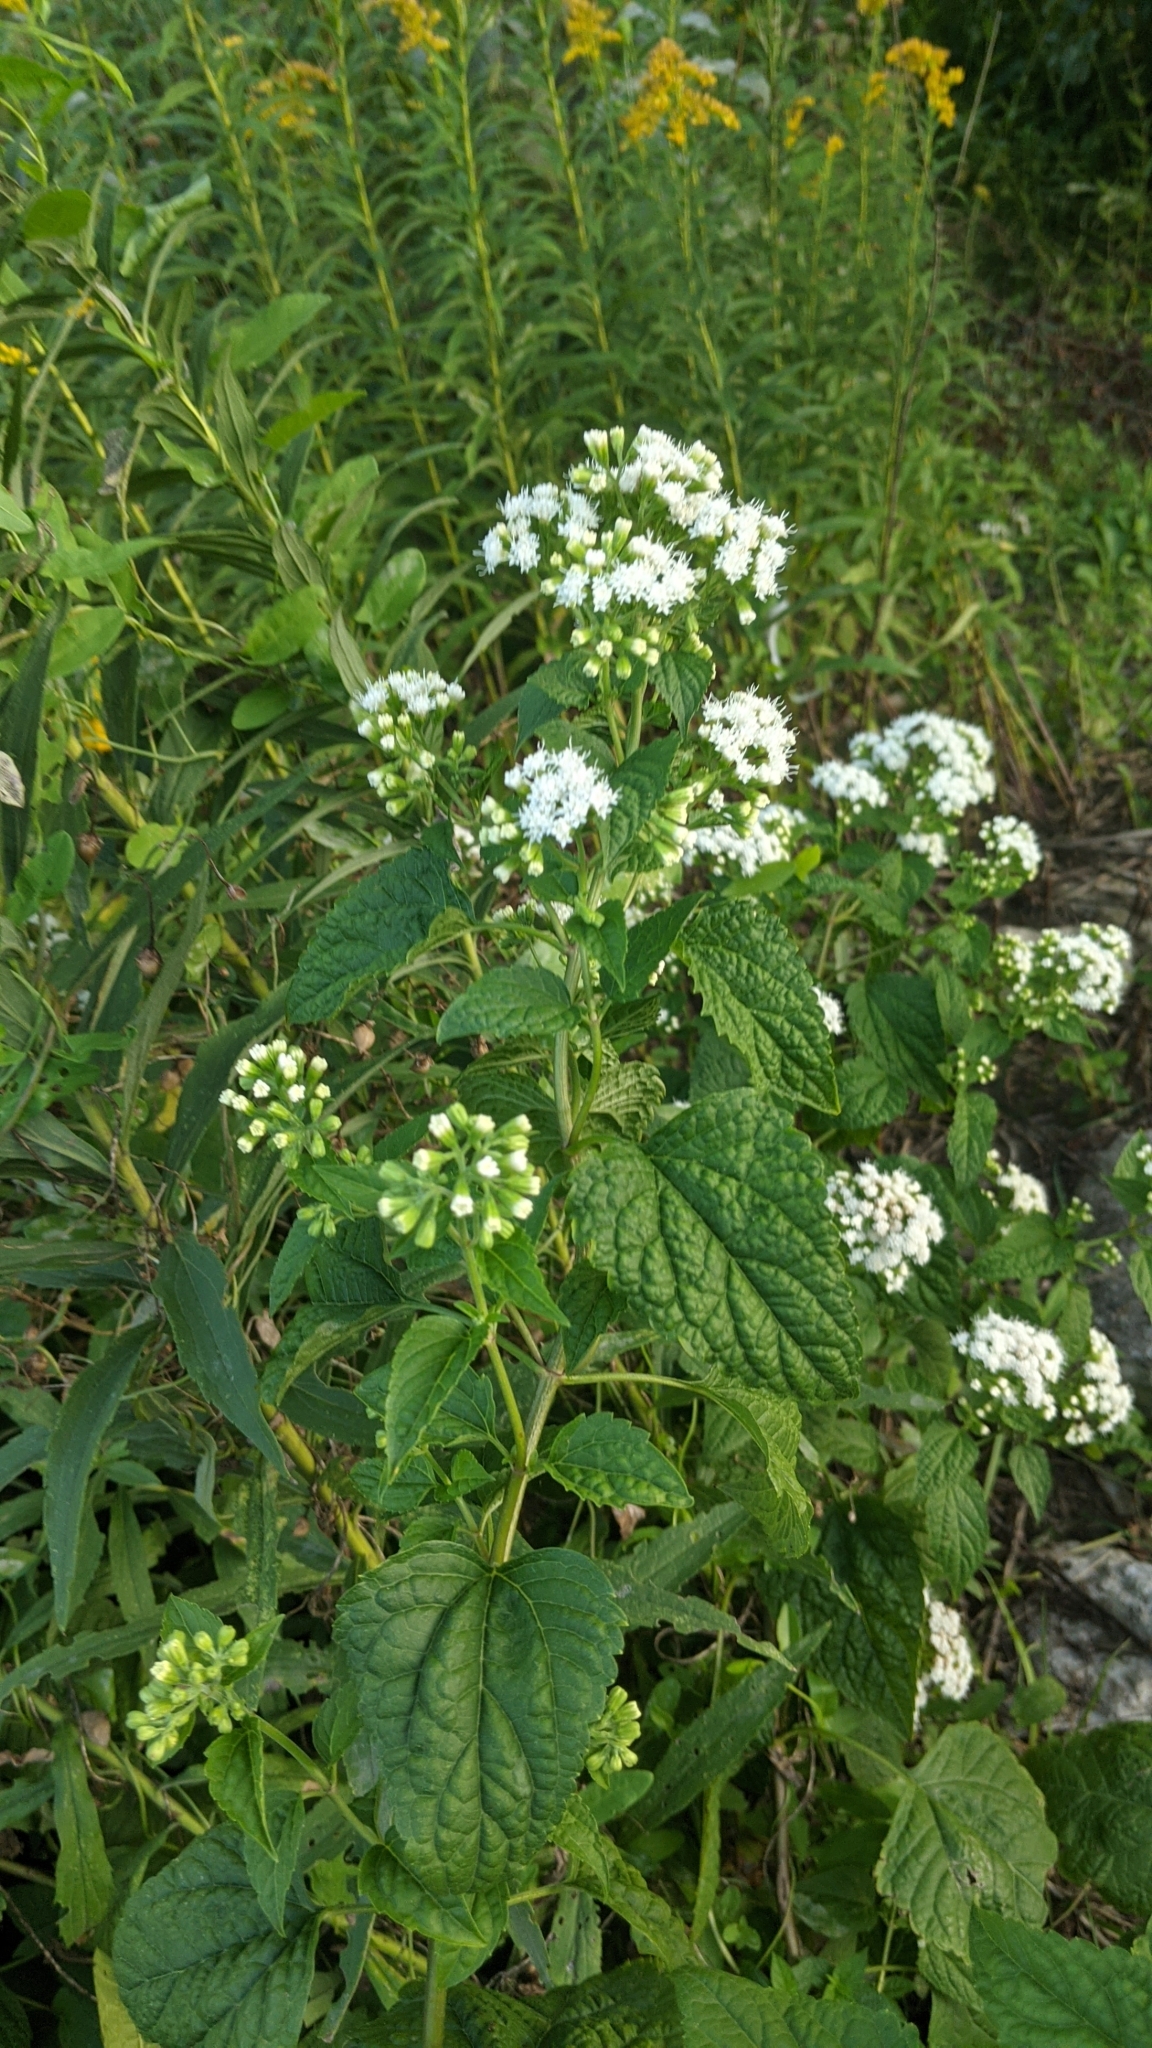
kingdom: Plantae
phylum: Tracheophyta
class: Magnoliopsida
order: Asterales
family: Asteraceae
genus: Ageratina
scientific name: Ageratina altissima
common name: White snakeroot
